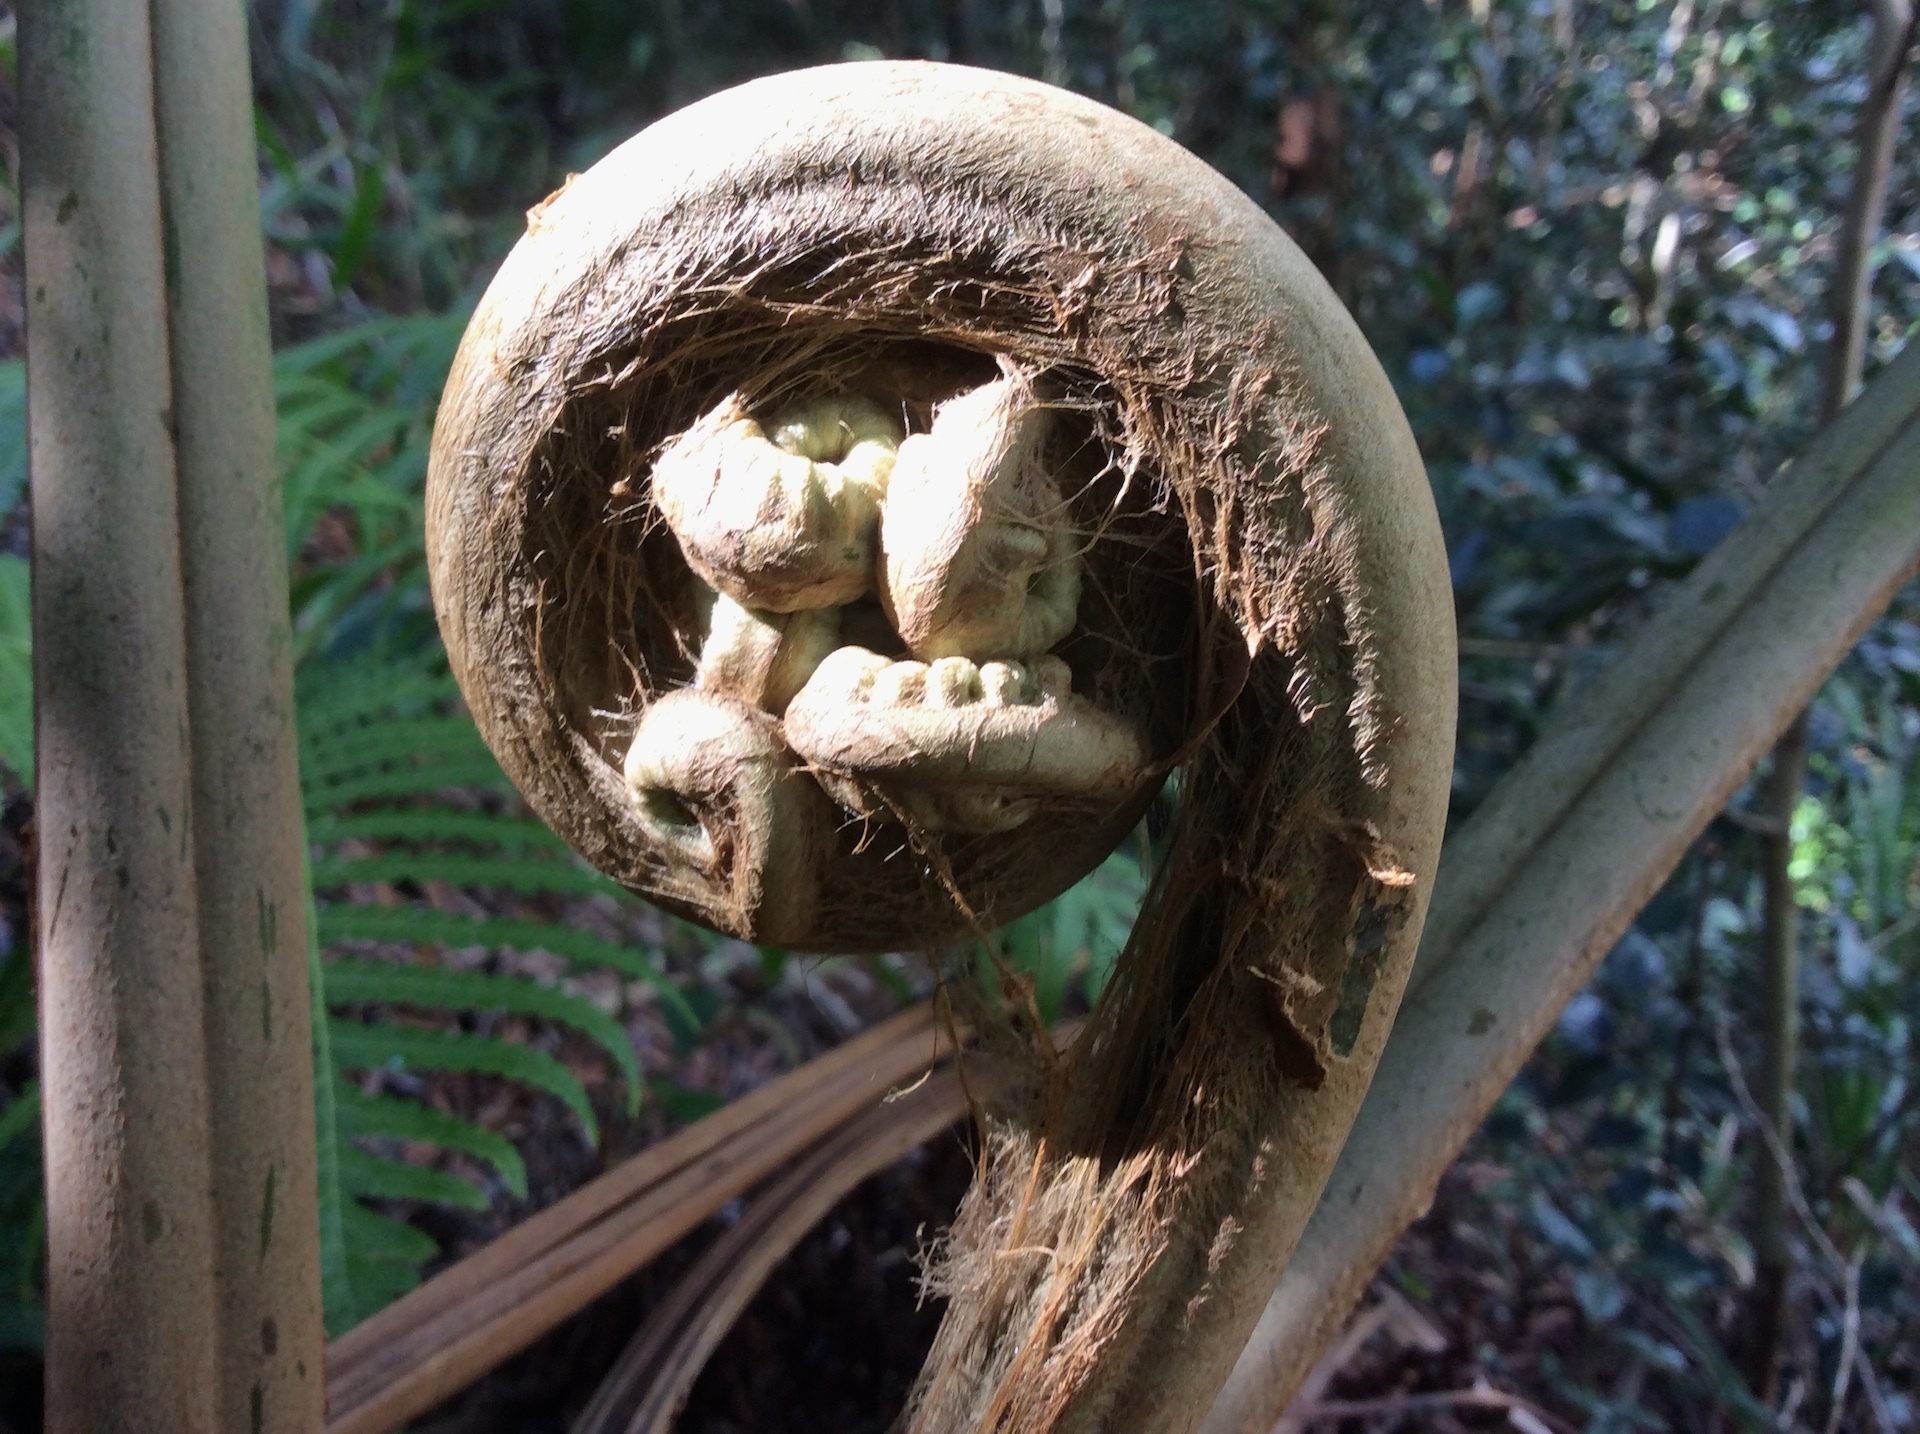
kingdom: Plantae
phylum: Tracheophyta
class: Polypodiopsida
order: Cyatheales
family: Cibotiaceae
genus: Cibotium
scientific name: Cibotium menziesii
